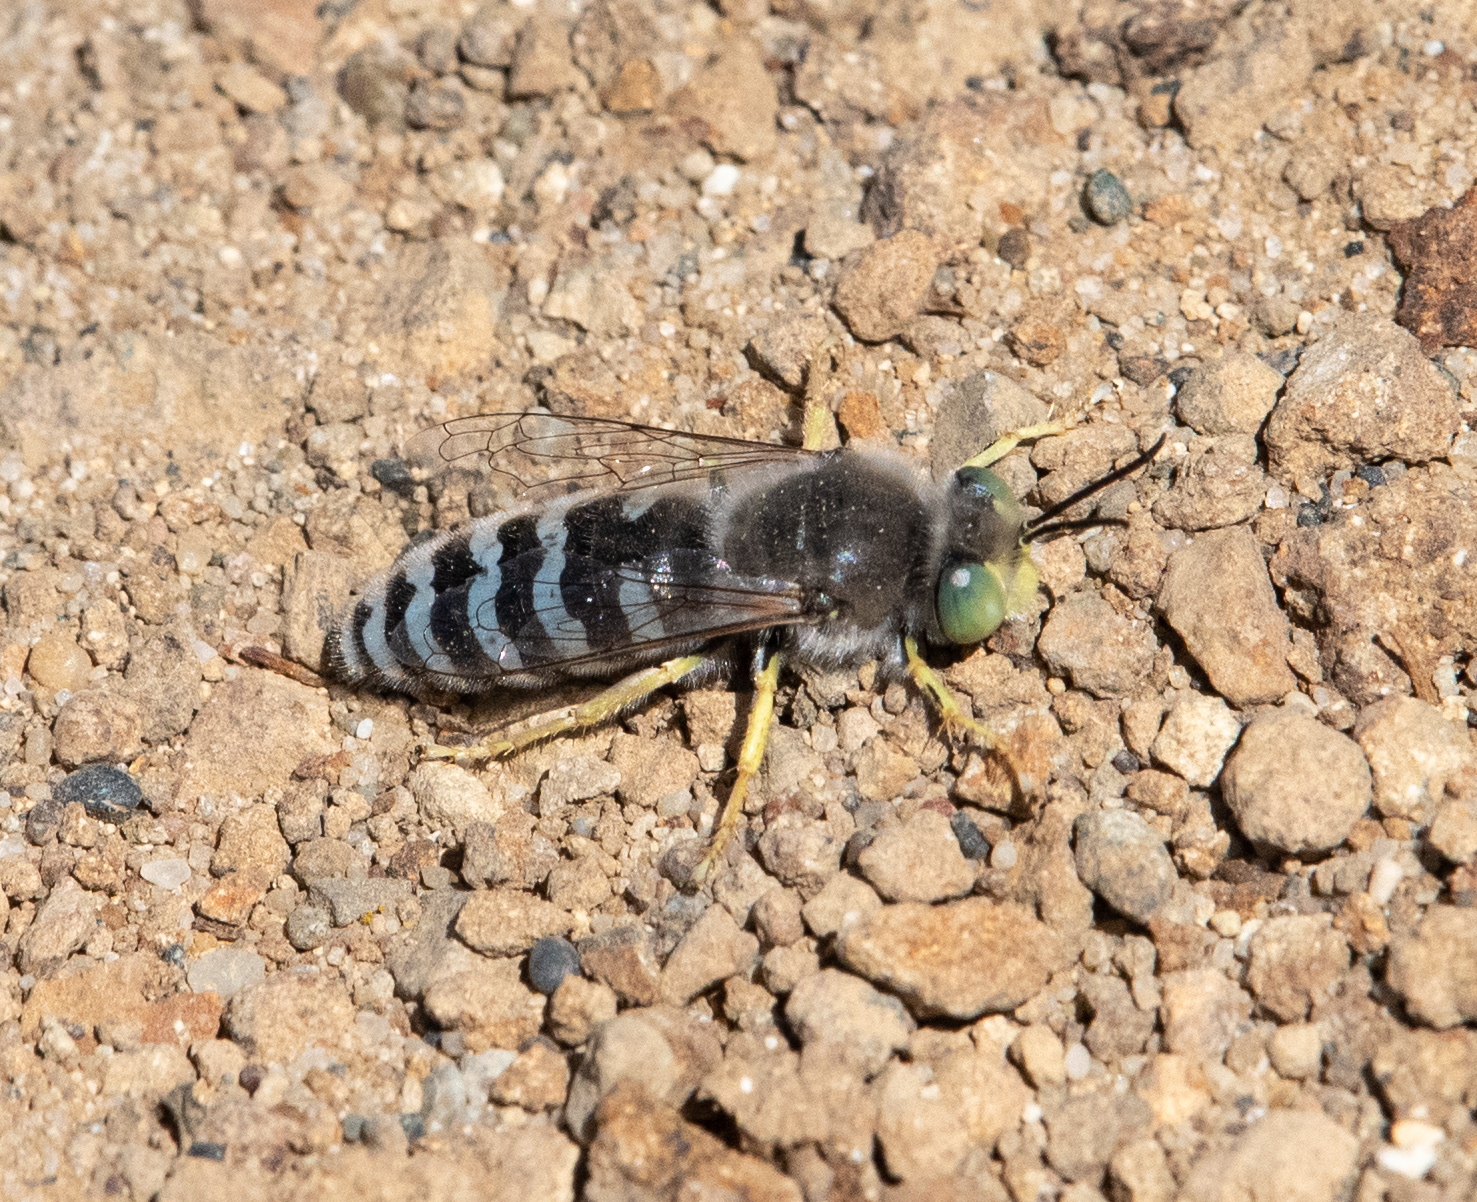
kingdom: Animalia
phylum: Arthropoda
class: Insecta
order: Hymenoptera
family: Crabronidae
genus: Bembix
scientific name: Bembix americana
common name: American sand wasp
